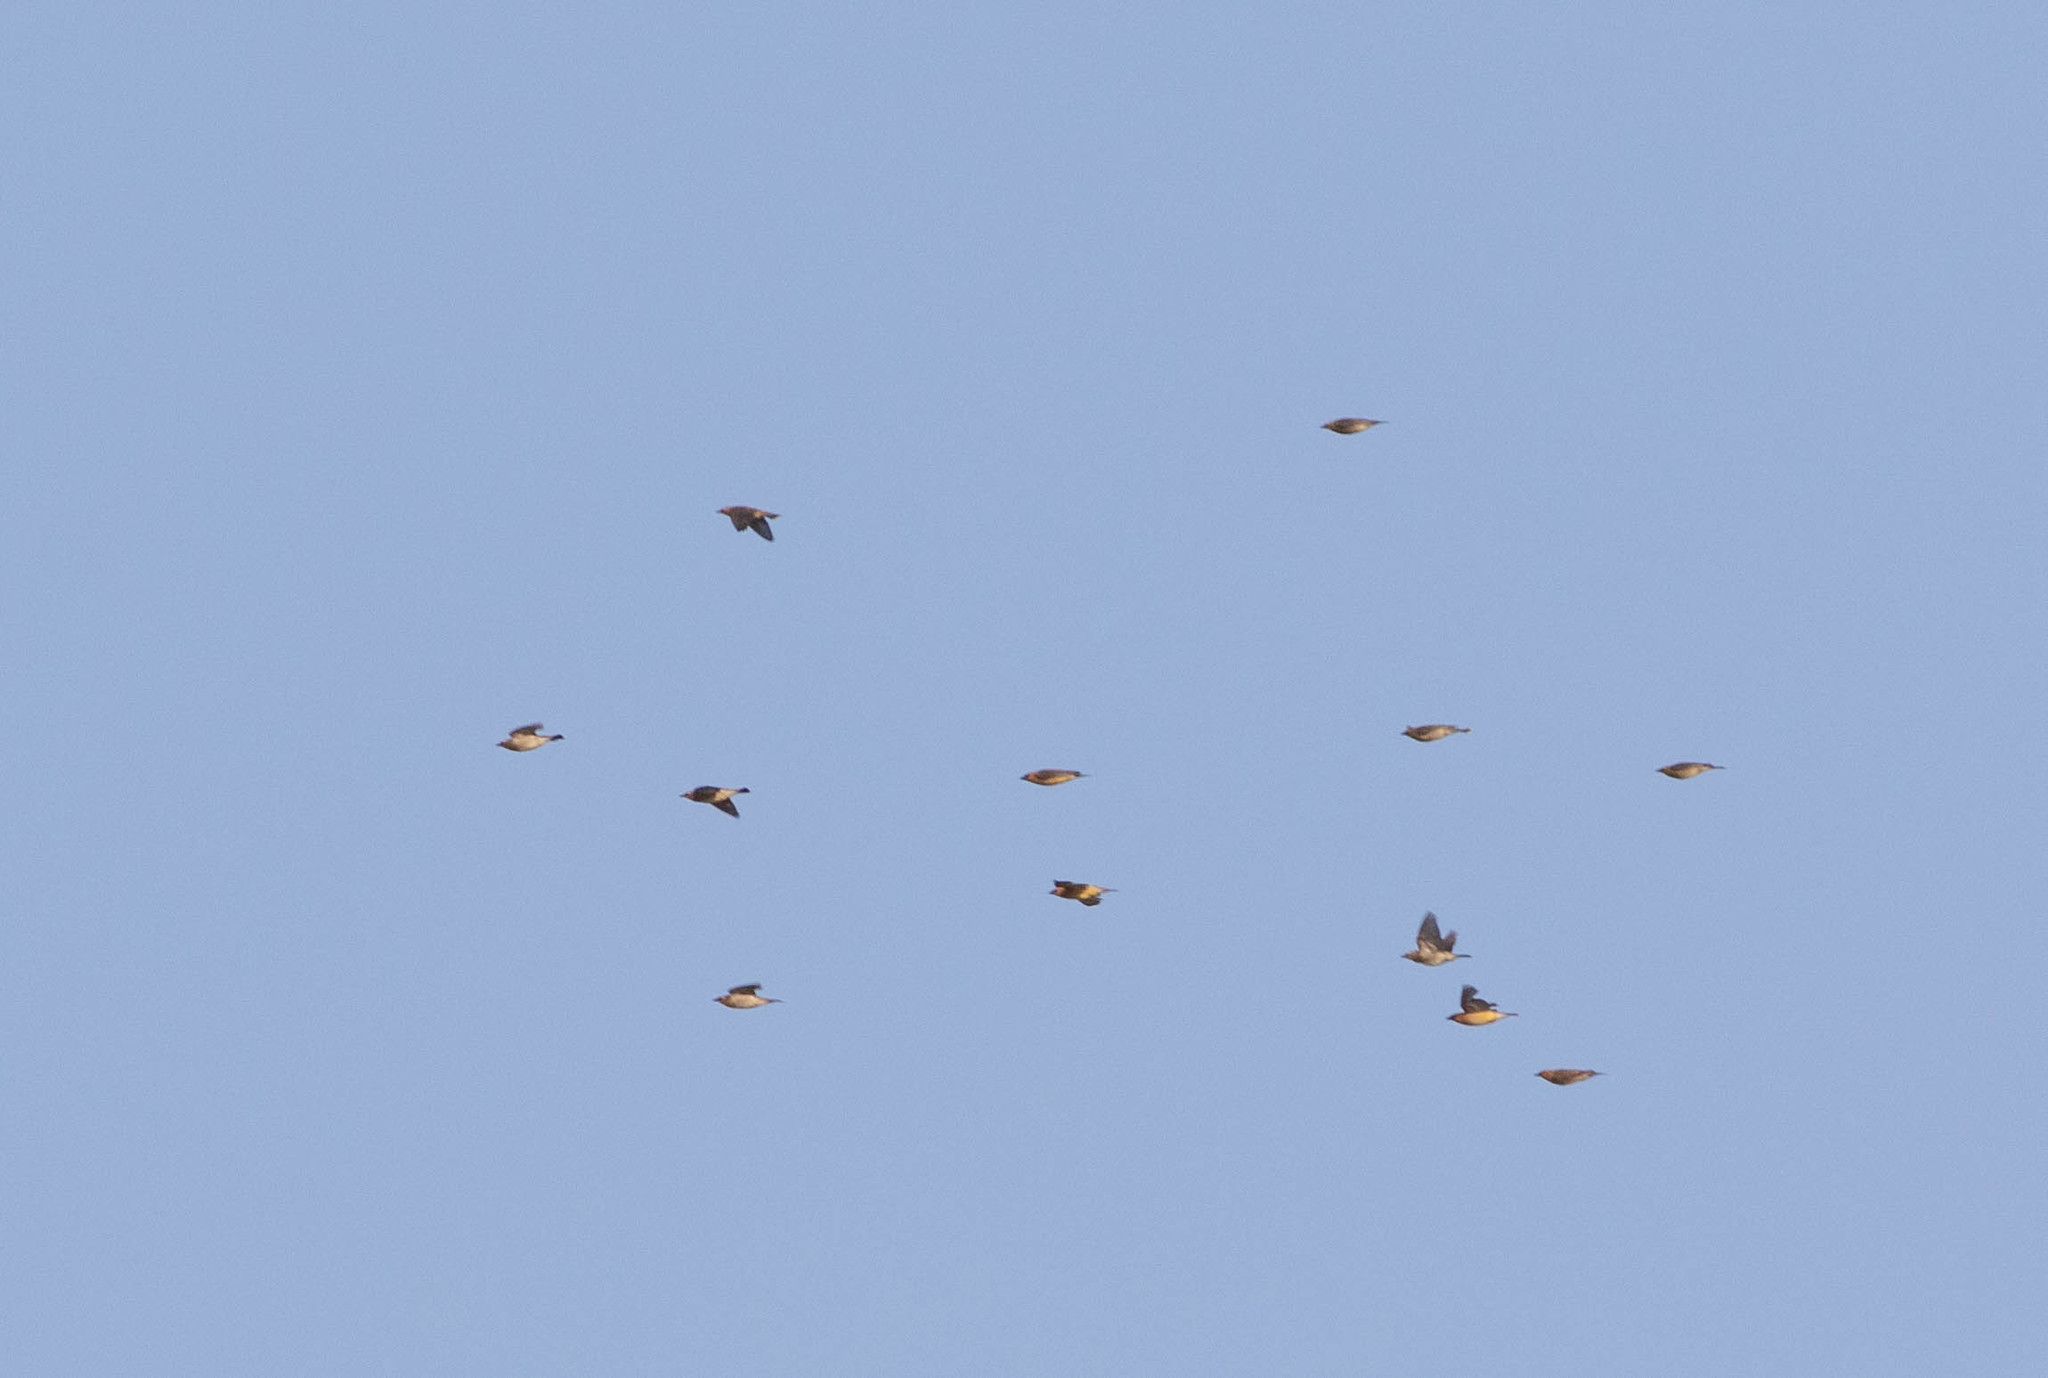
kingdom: Animalia
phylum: Chordata
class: Aves
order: Passeriformes
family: Bombycillidae
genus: Bombycilla
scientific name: Bombycilla cedrorum
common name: Cedar waxwing
